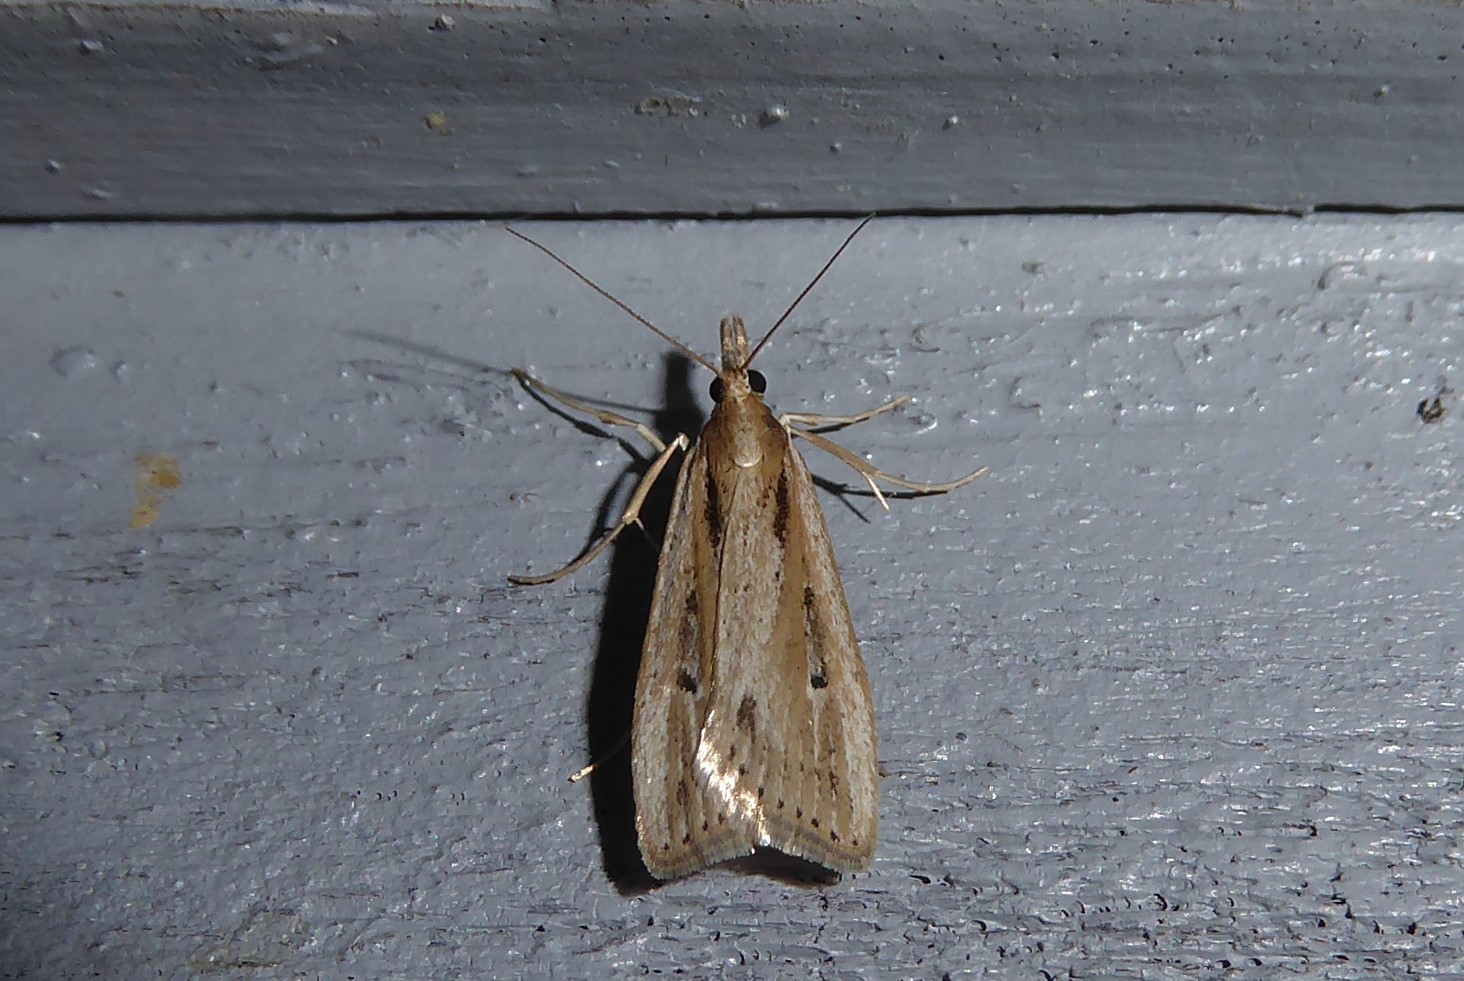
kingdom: Animalia
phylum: Arthropoda
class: Insecta
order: Lepidoptera
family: Crambidae
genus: Eudonia
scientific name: Eudonia sabulosella
